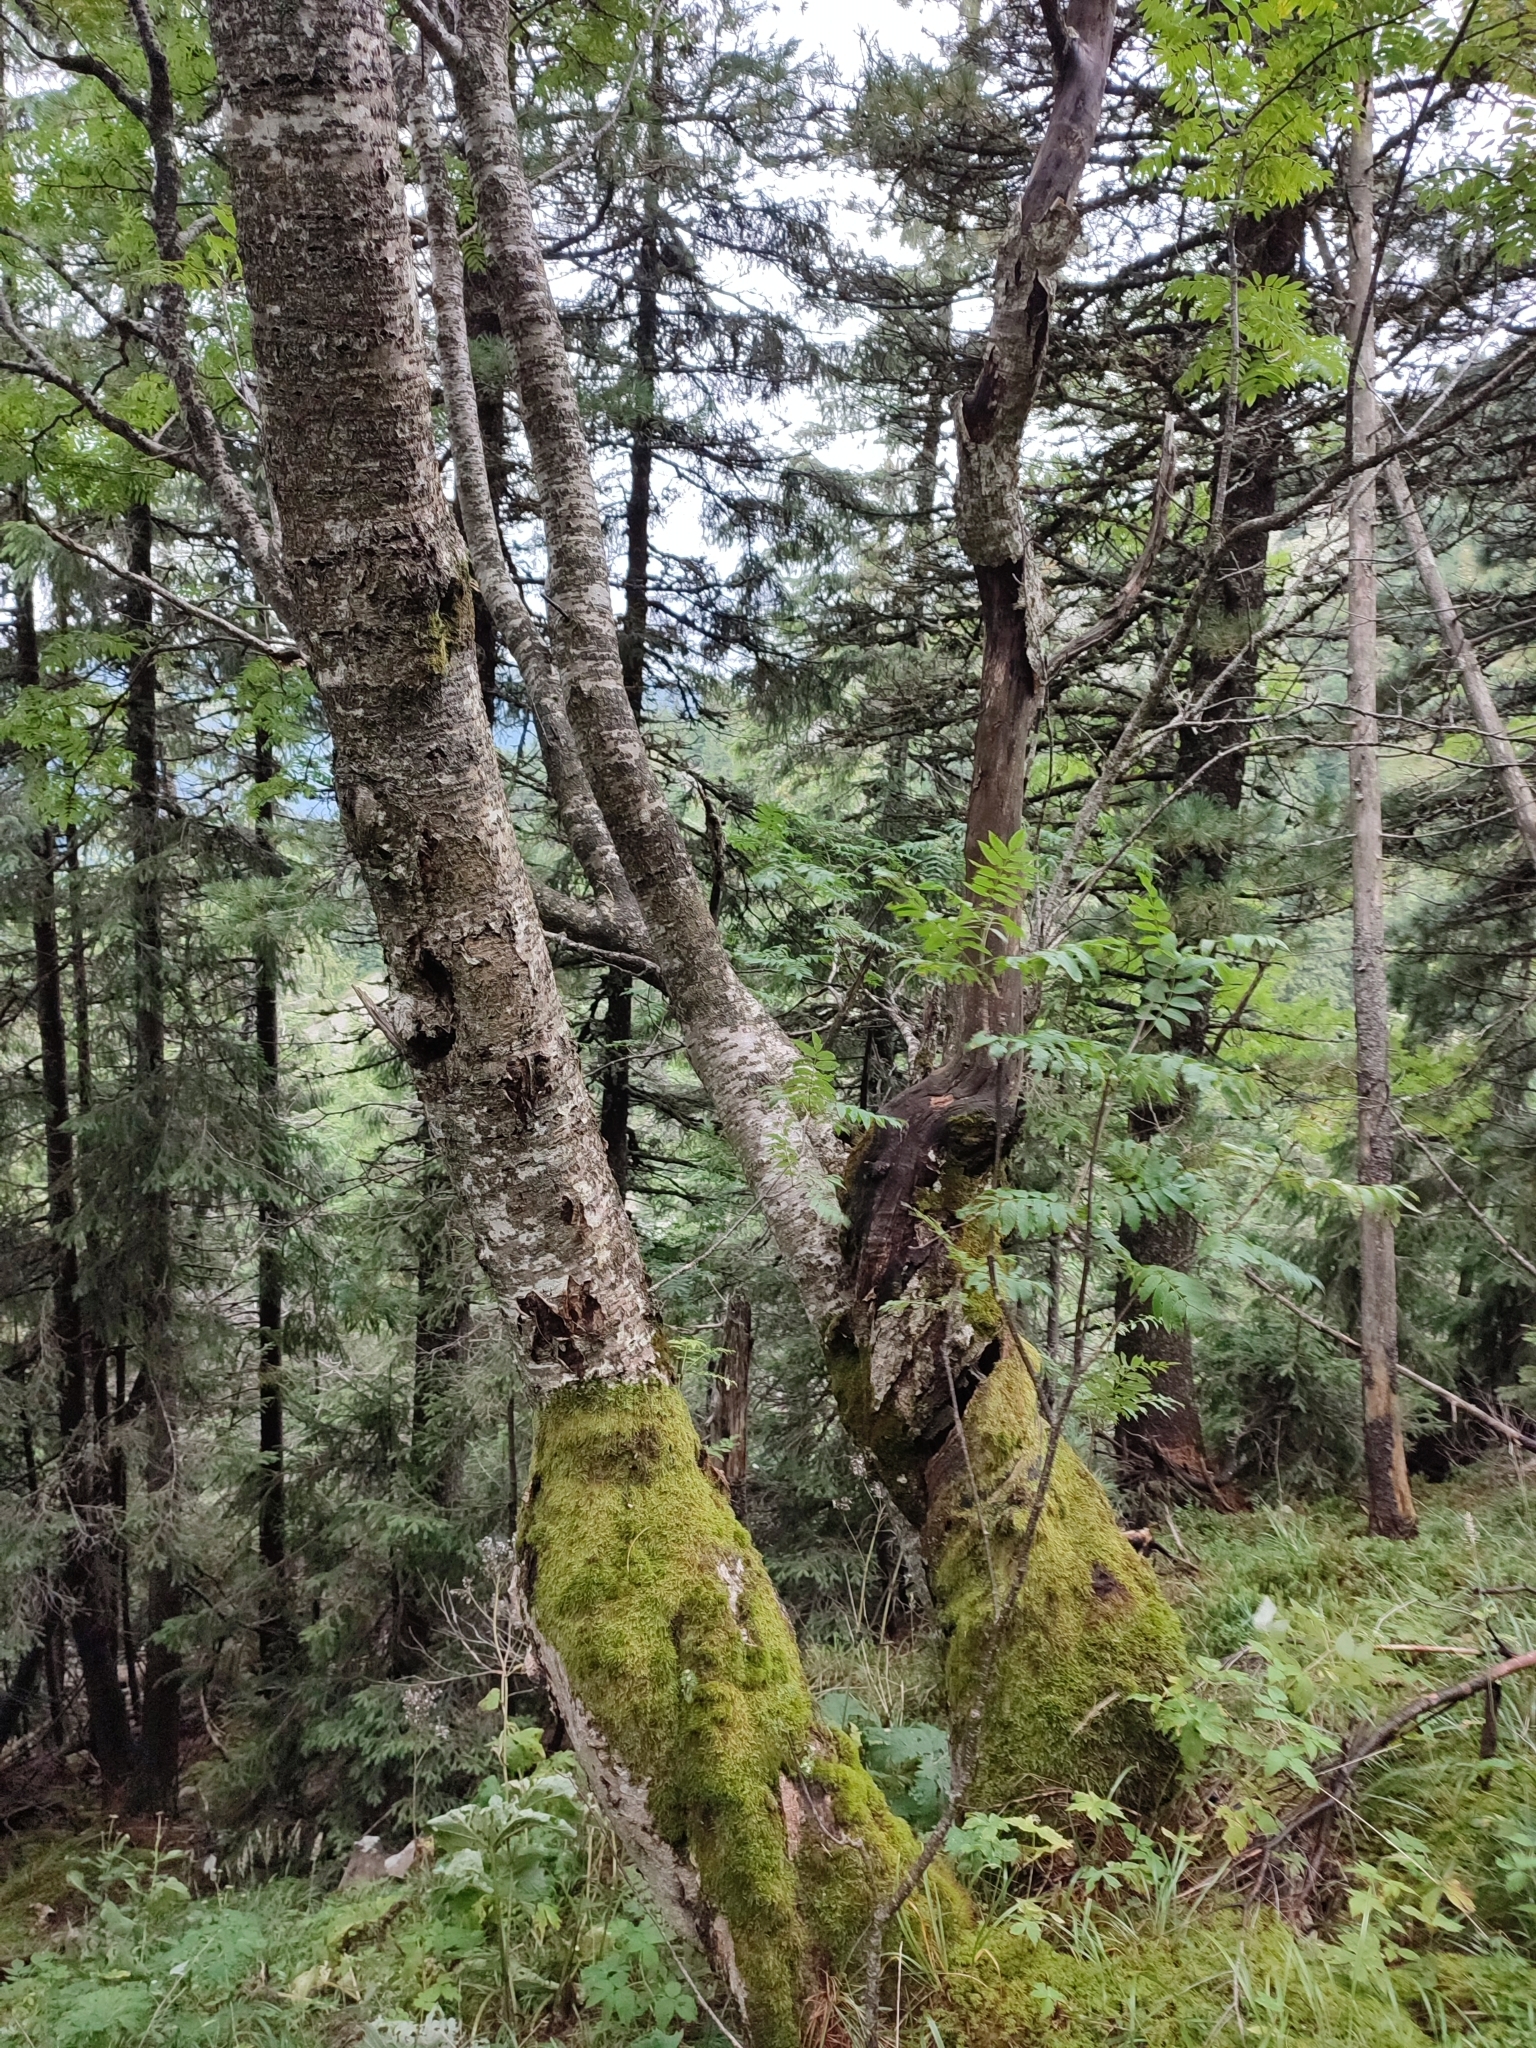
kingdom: Plantae
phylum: Tracheophyta
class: Magnoliopsida
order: Rosales
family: Rosaceae
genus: Sorbus
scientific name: Sorbus aucuparia
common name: Rowan
